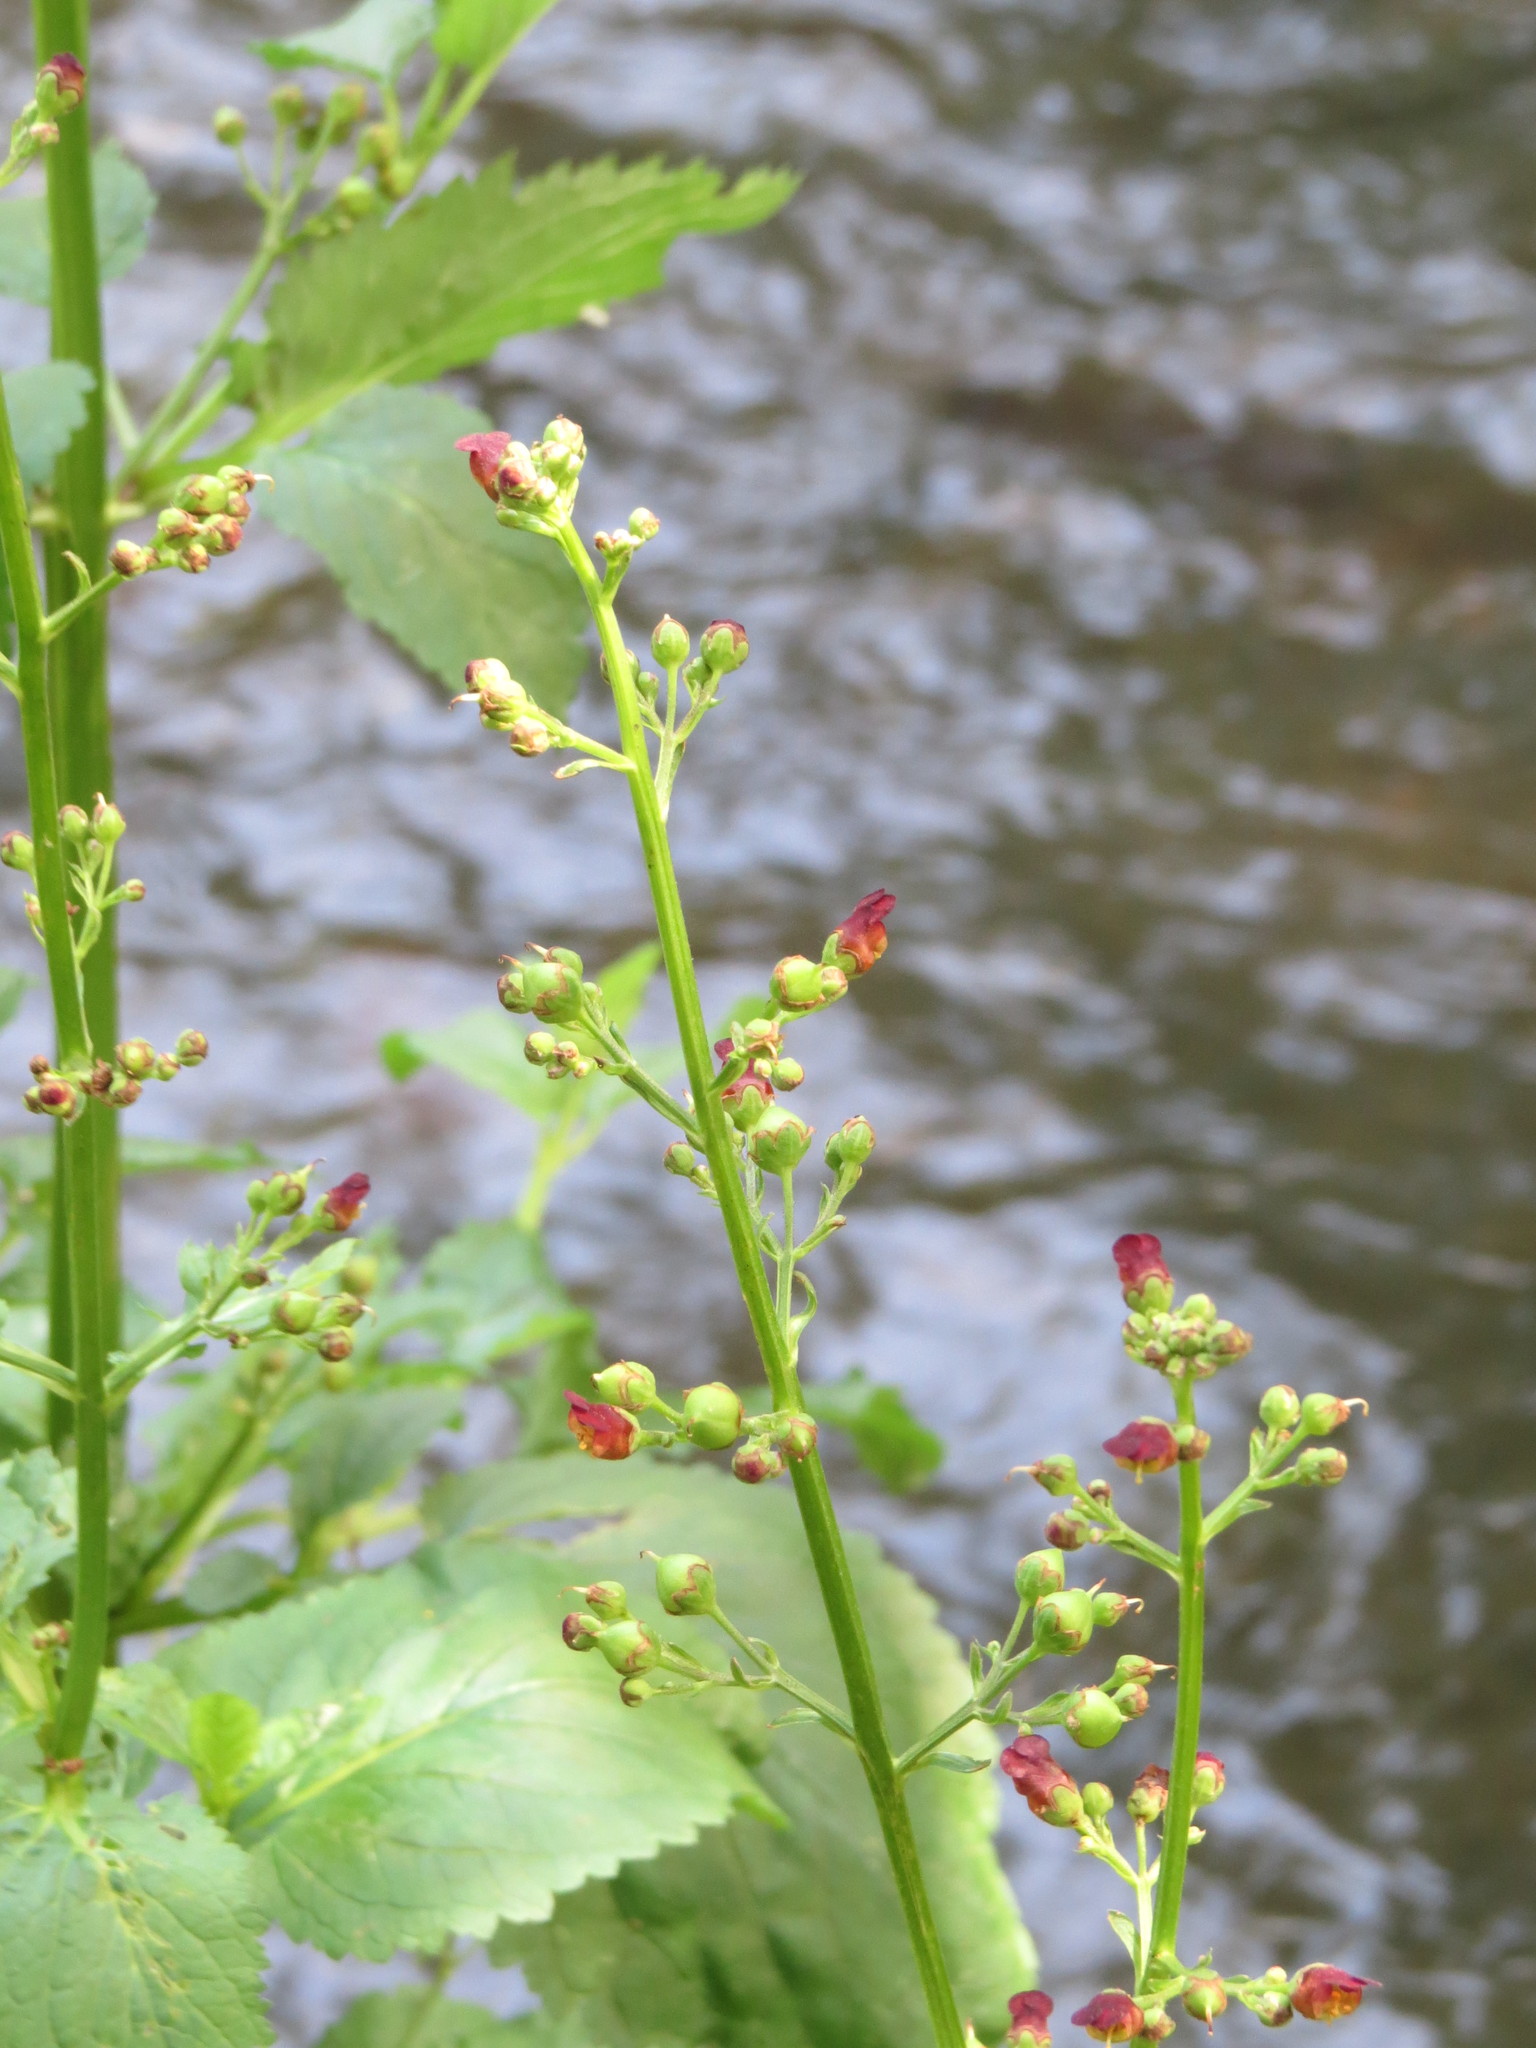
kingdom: Plantae
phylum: Tracheophyta
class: Magnoliopsida
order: Lamiales
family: Scrophulariaceae
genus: Scrophularia
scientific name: Scrophularia nodosa
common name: Common figwort
